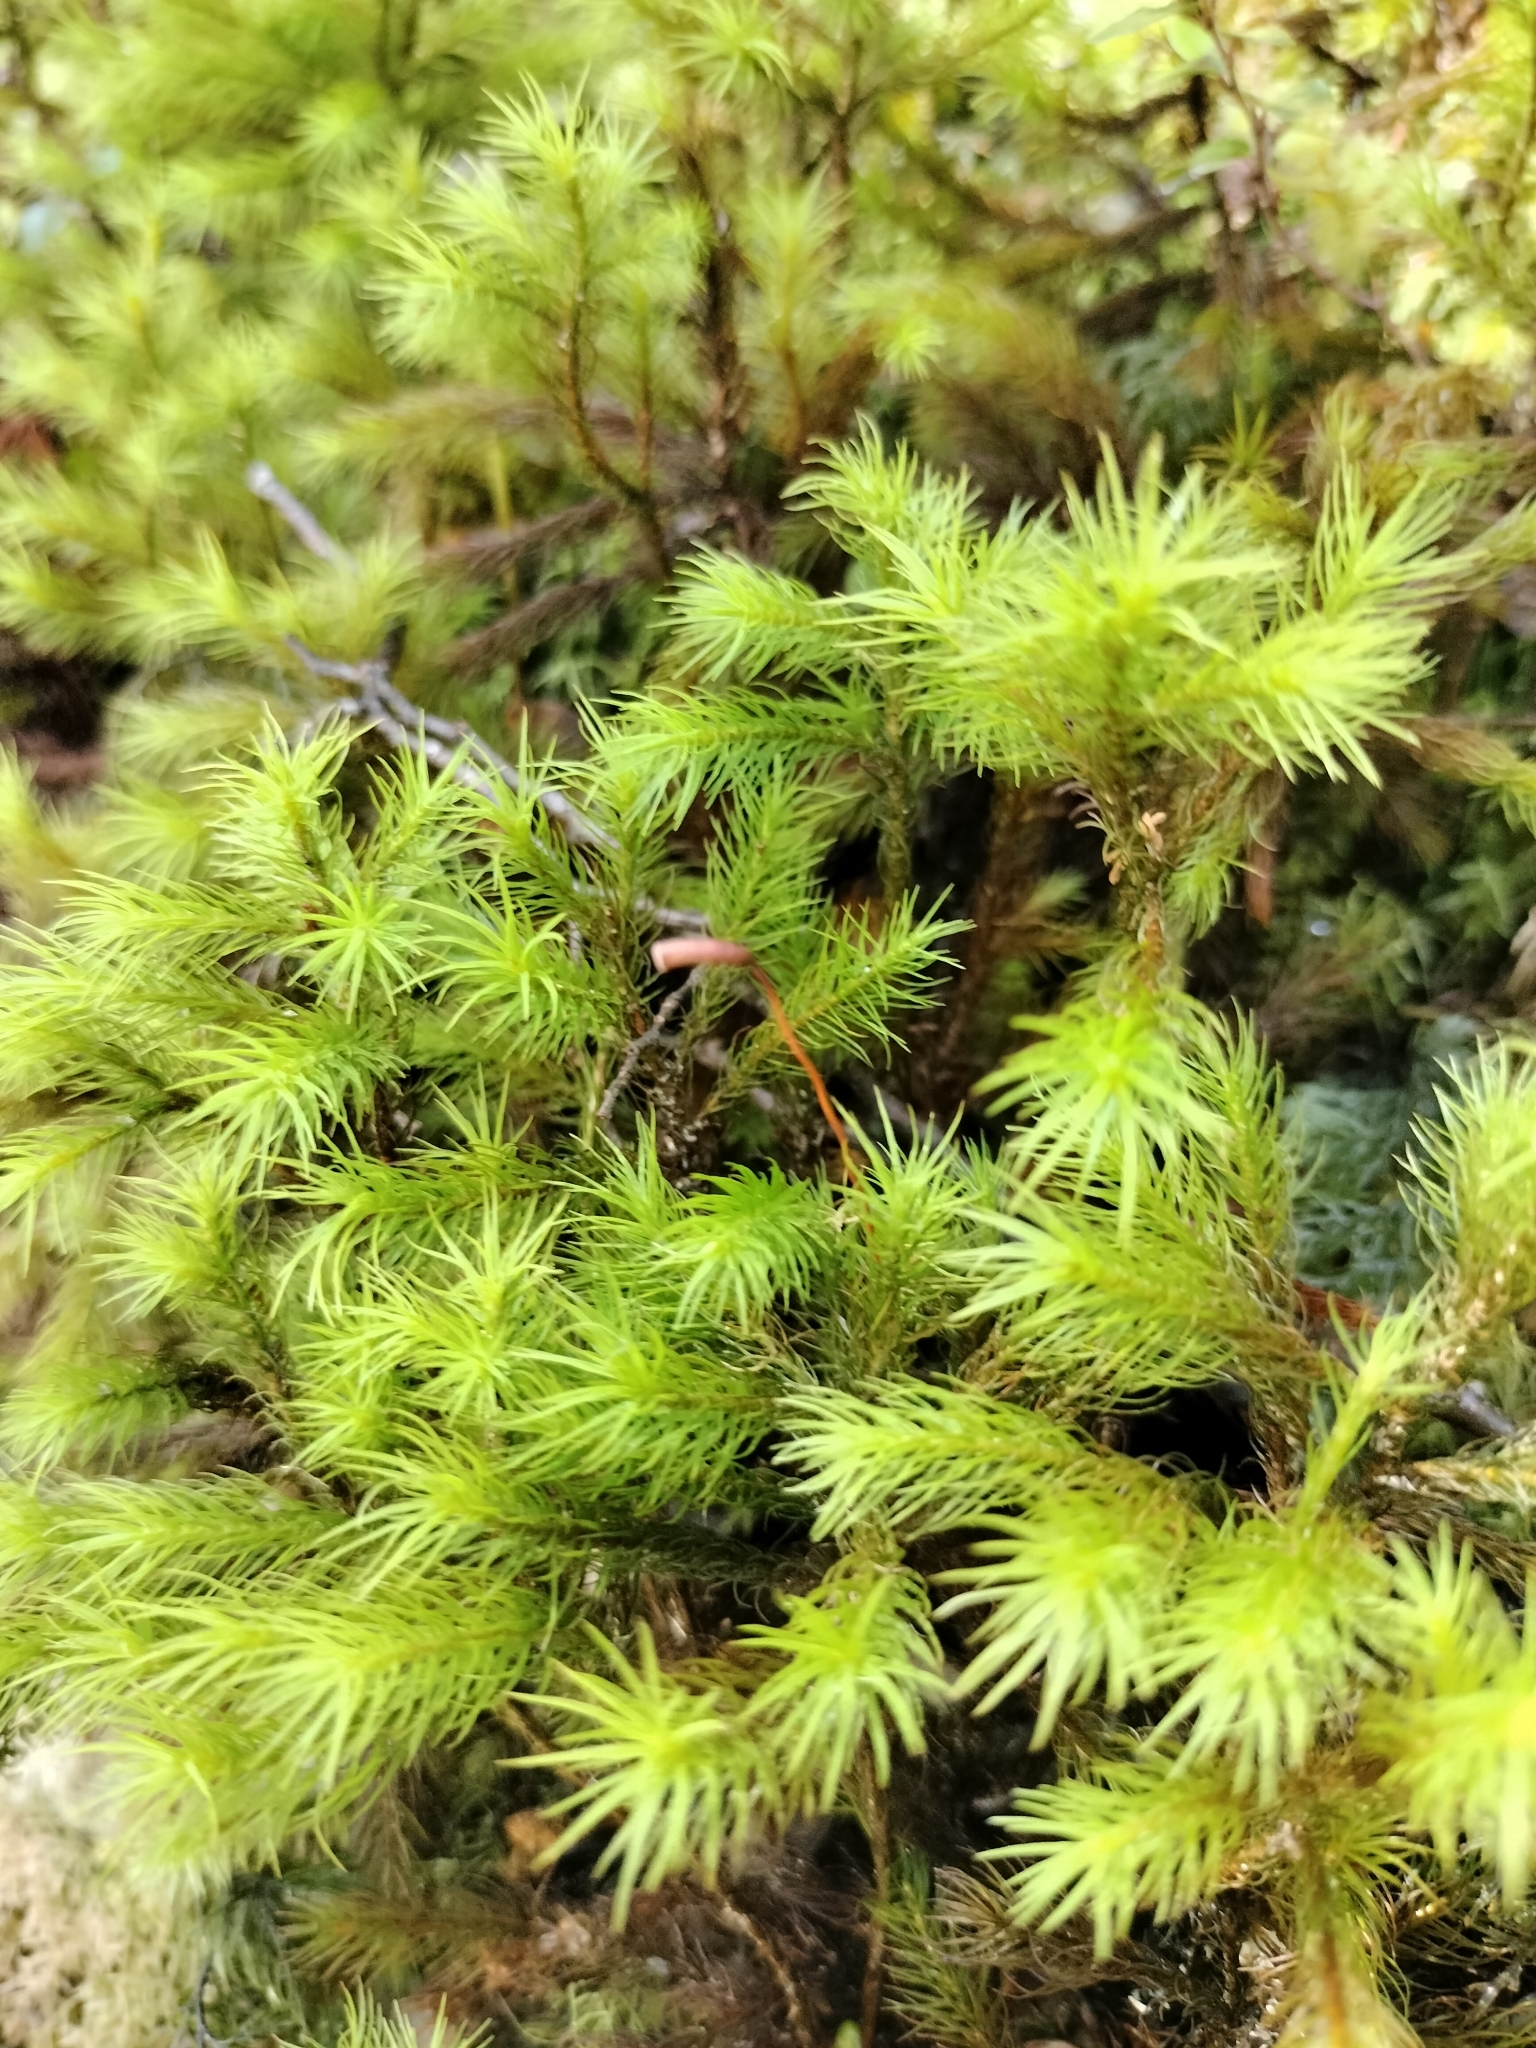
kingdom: Plantae
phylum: Bryophyta
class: Polytrichopsida
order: Polytrichales
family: Polytrichaceae
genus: Dendroligotrichum
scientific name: Dendroligotrichum tongariroense
